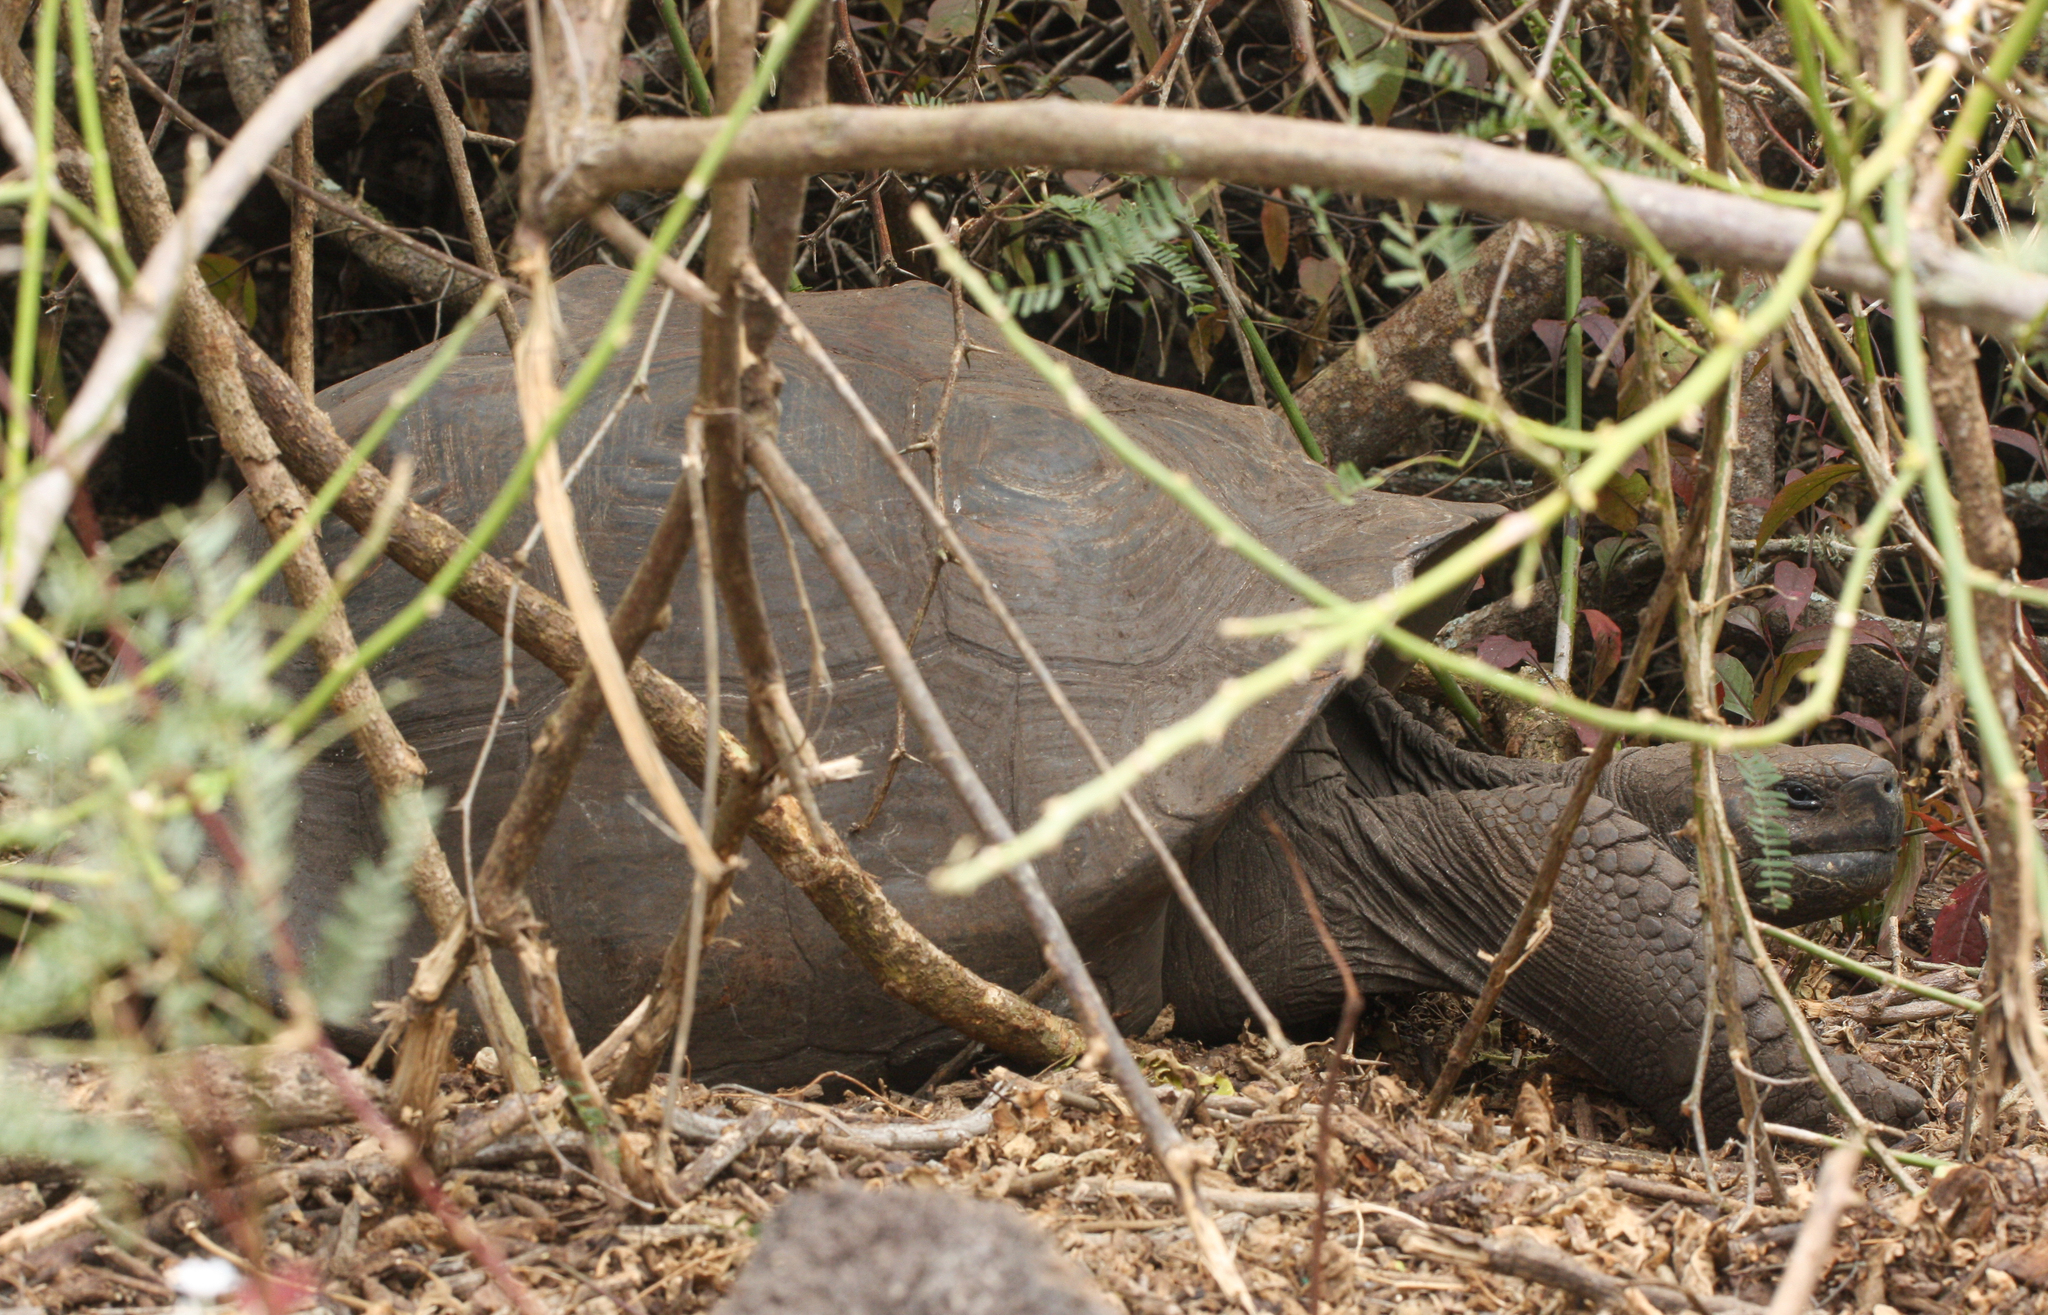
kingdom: Animalia
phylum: Chordata
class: Testudines
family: Testudinidae
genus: Chelonoidis
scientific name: Chelonoidis guntheri
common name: Sierra negra giant tortoise
